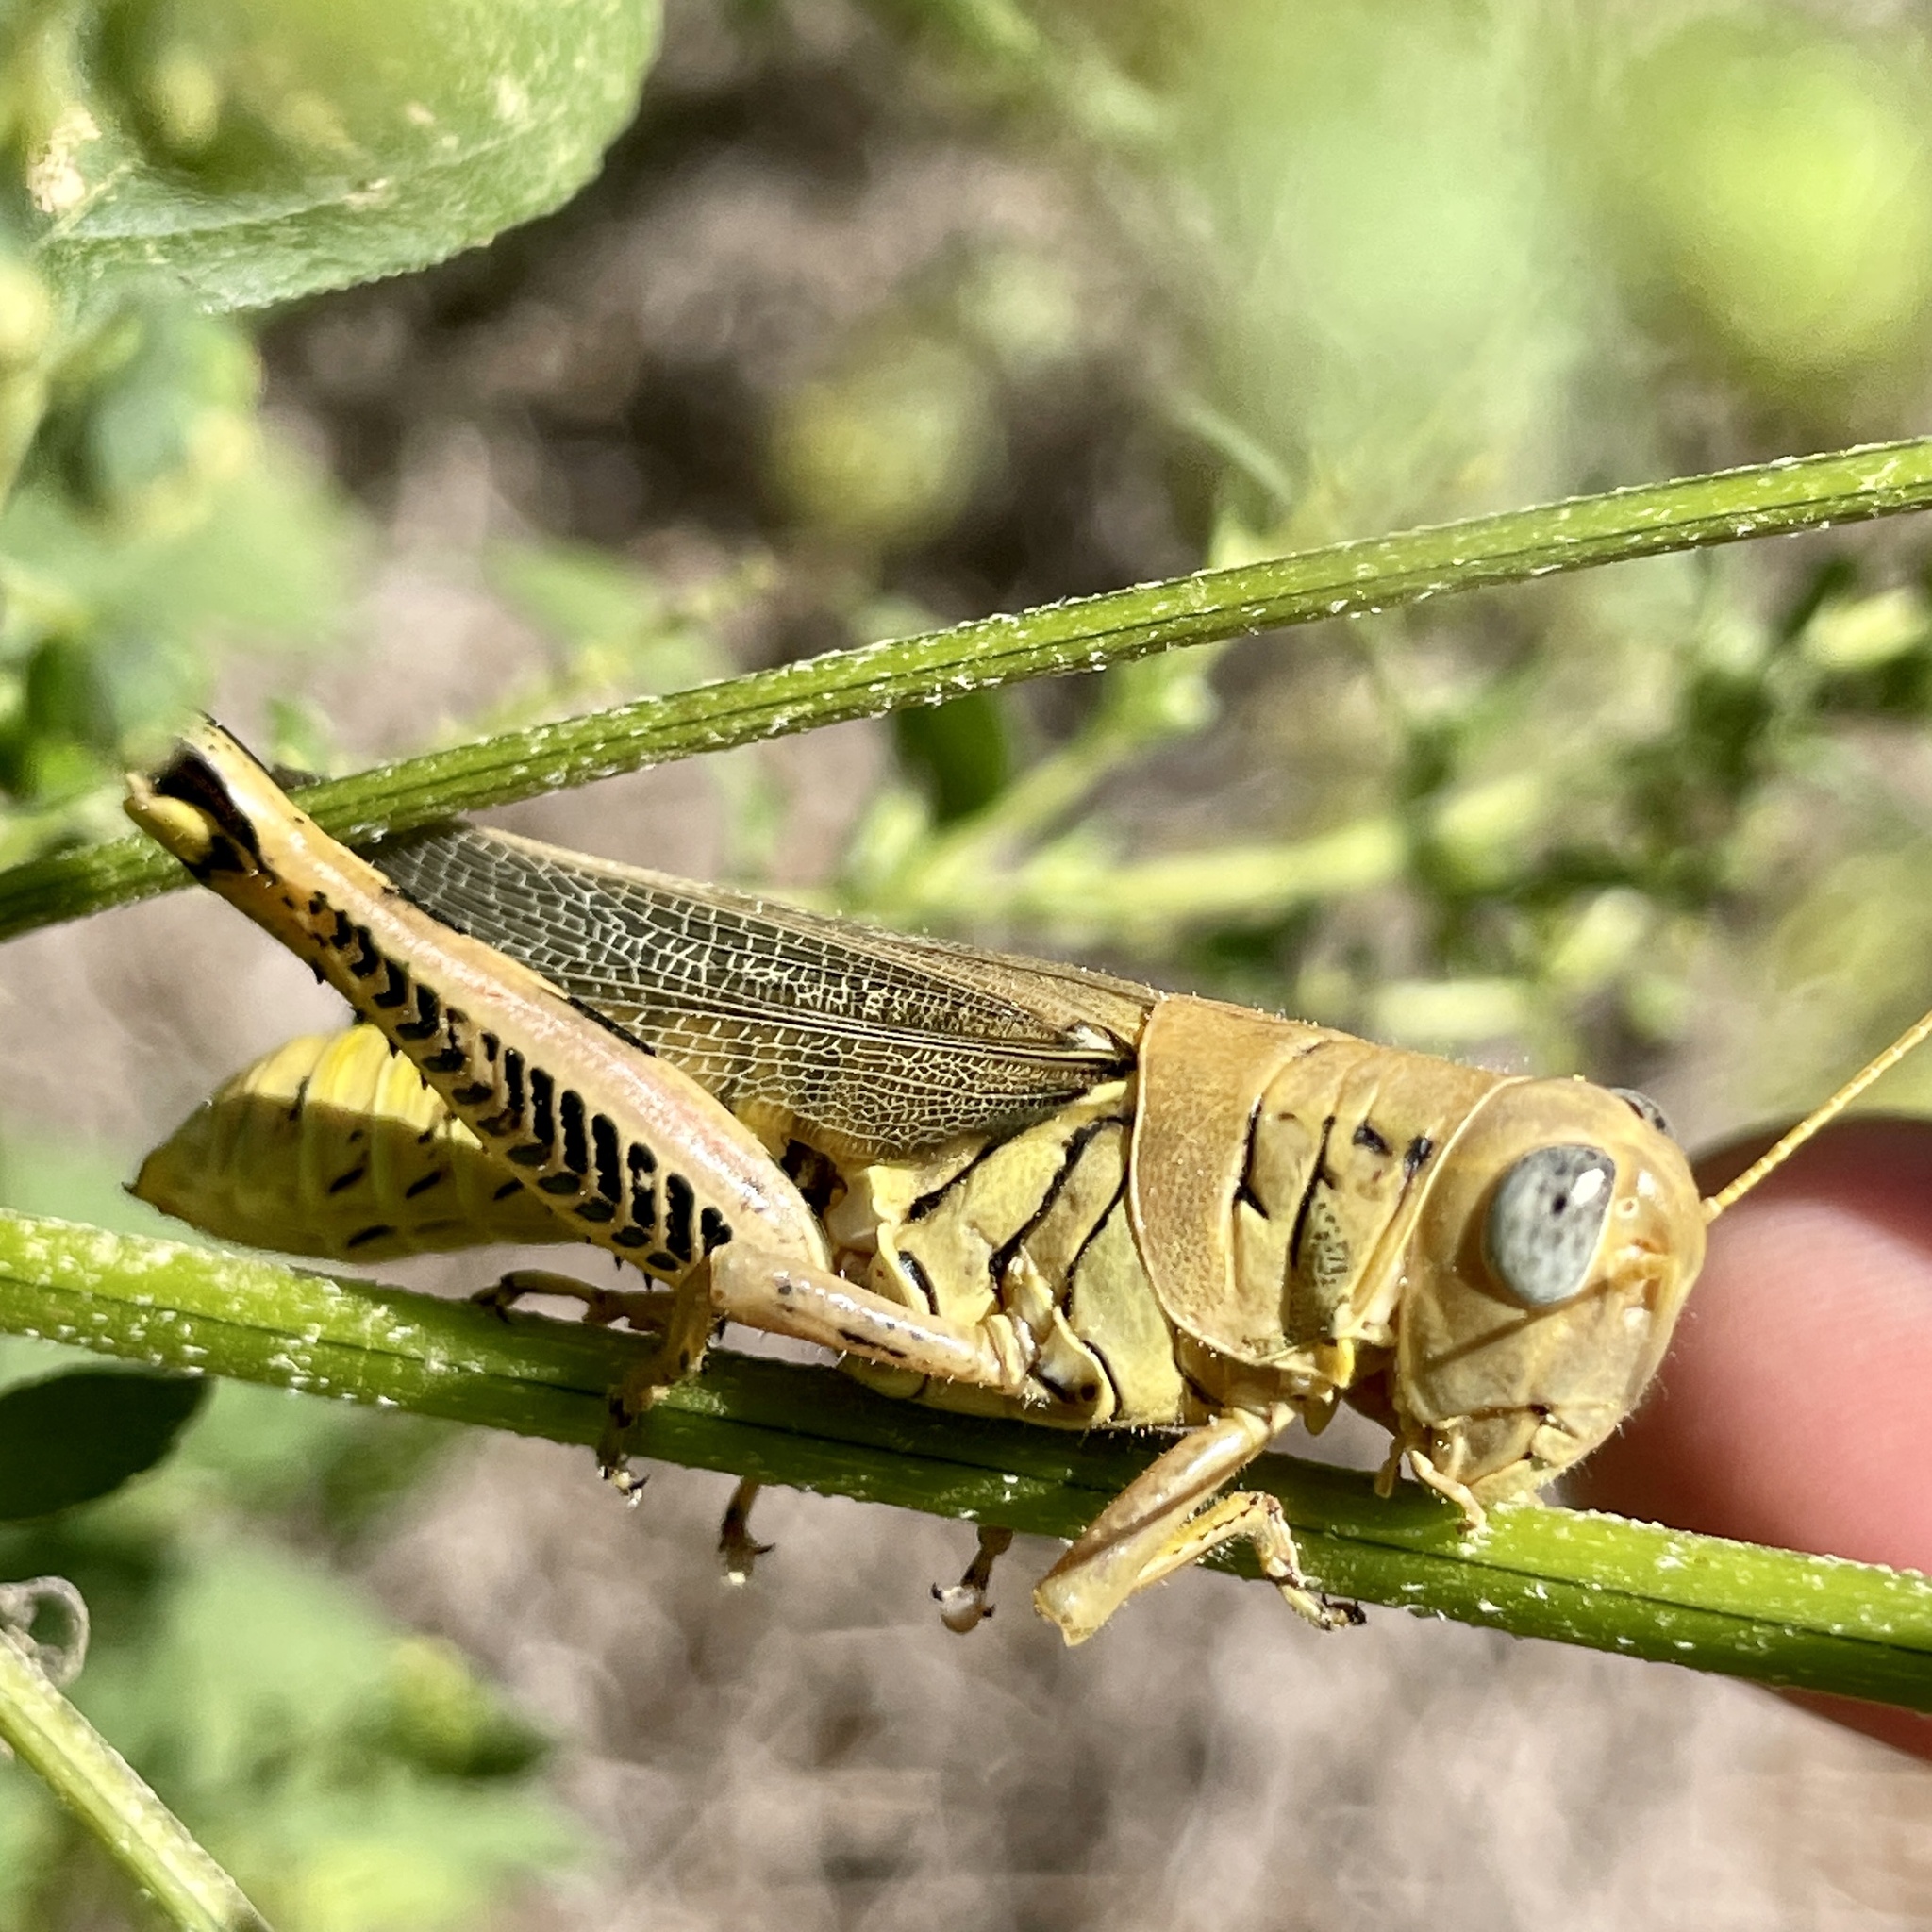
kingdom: Animalia
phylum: Arthropoda
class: Insecta
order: Orthoptera
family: Acrididae
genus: Melanoplus
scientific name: Melanoplus differentialis
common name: Differential grasshopper
